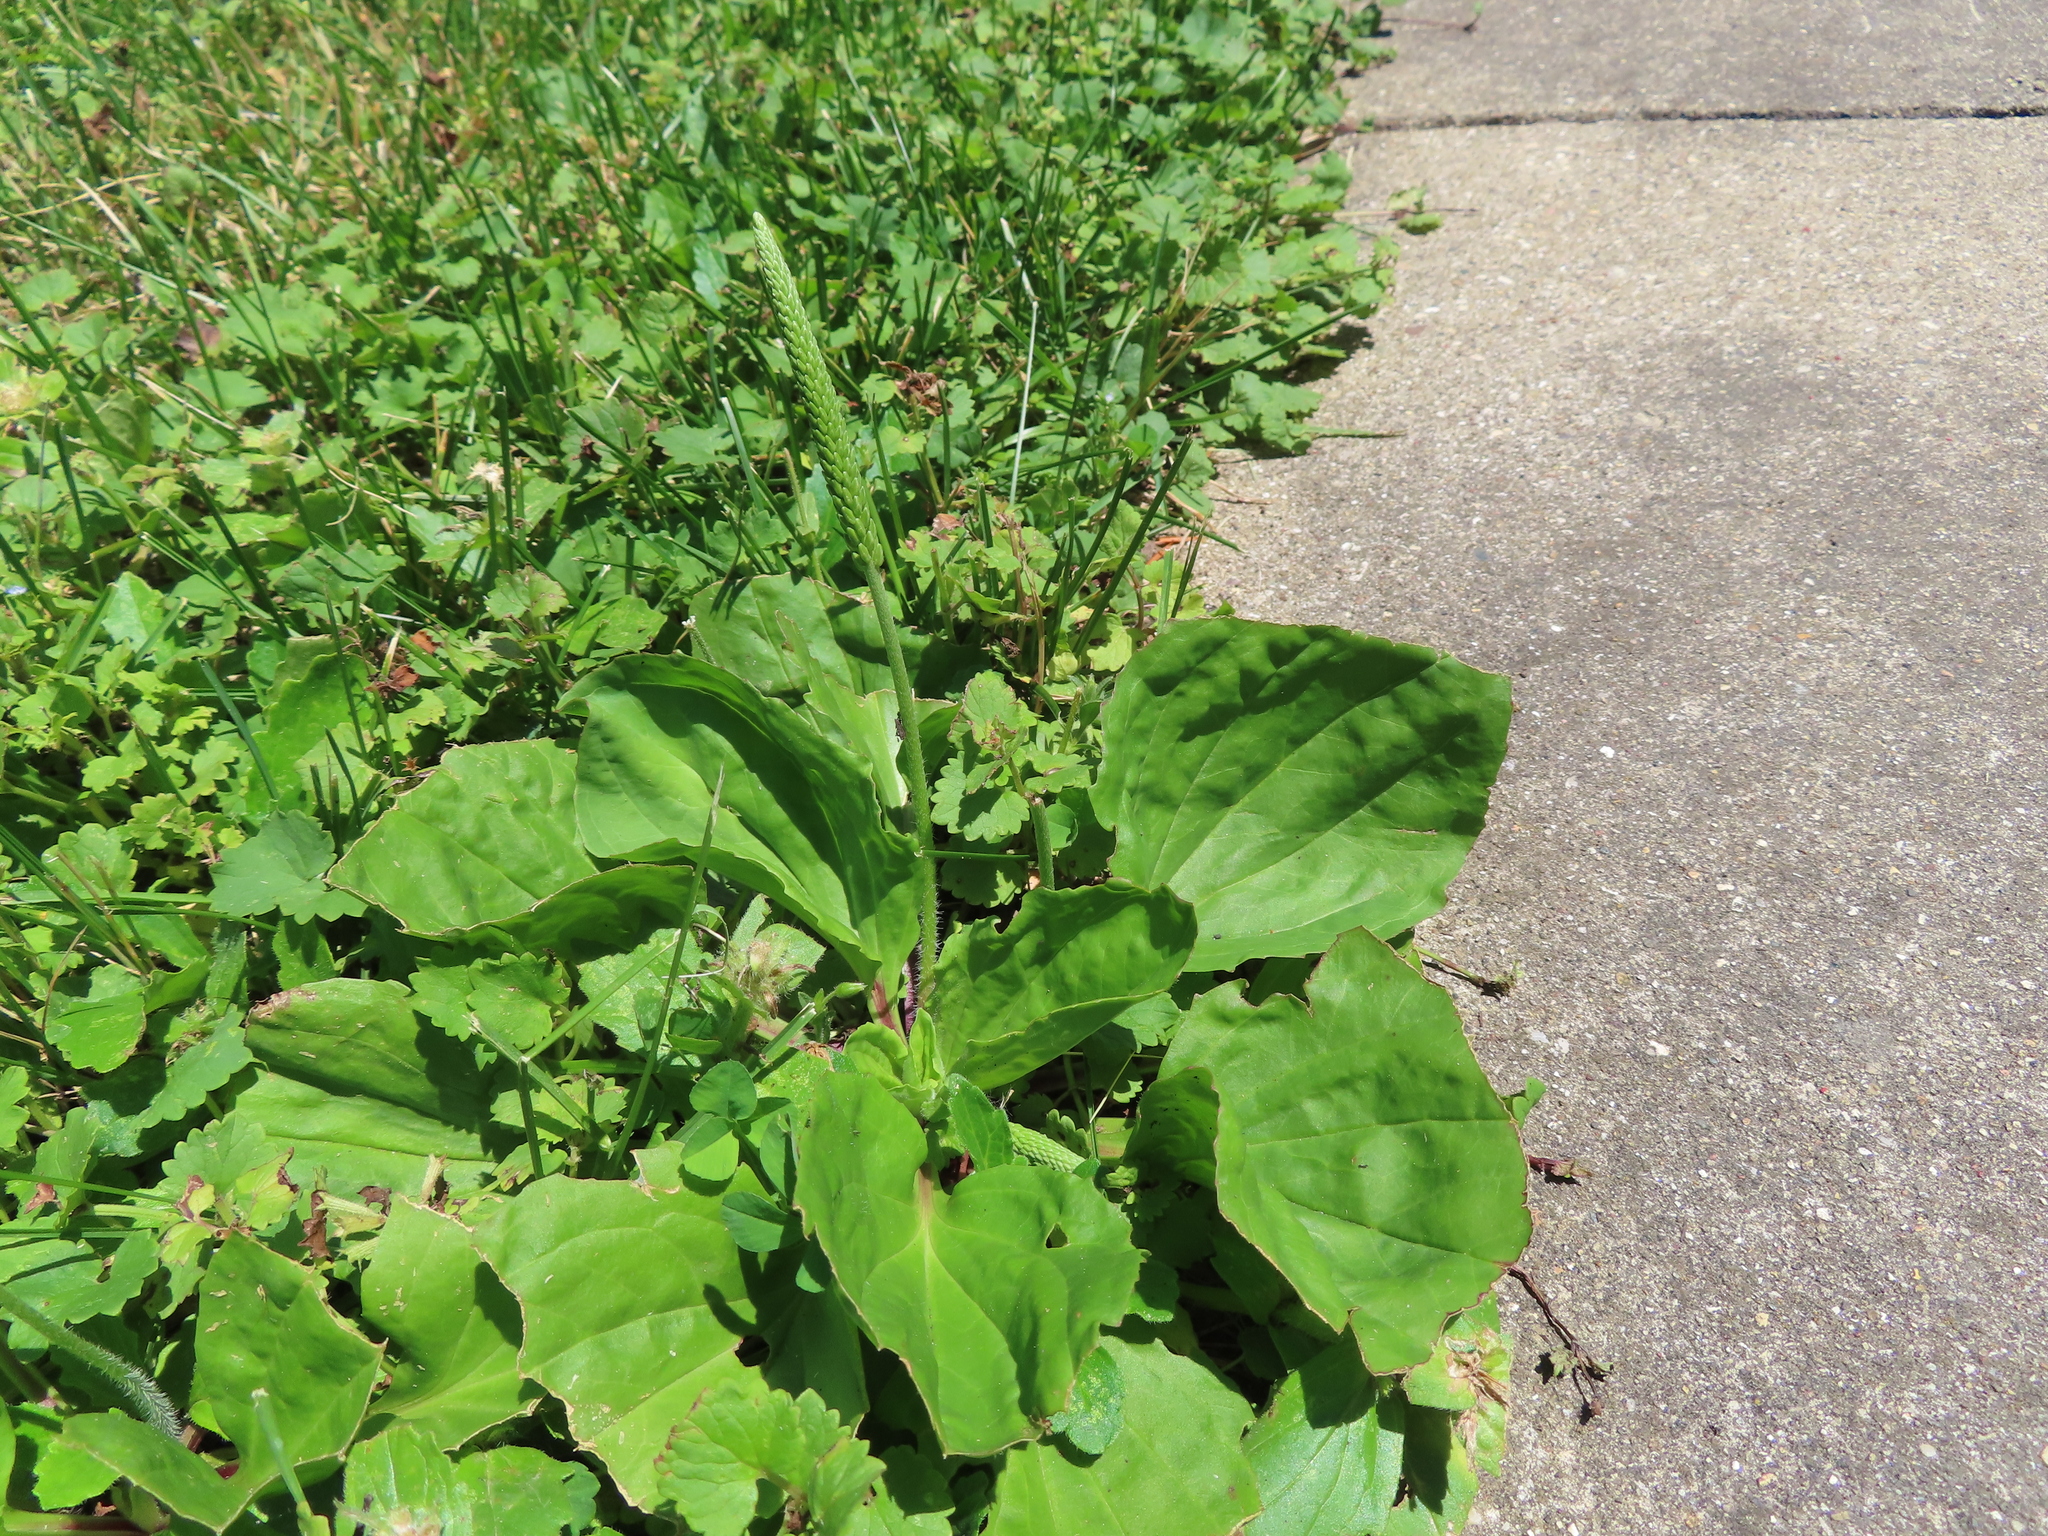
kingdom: Plantae
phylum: Tracheophyta
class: Magnoliopsida
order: Lamiales
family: Plantaginaceae
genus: Plantago
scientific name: Plantago rugelii
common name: American plantain
